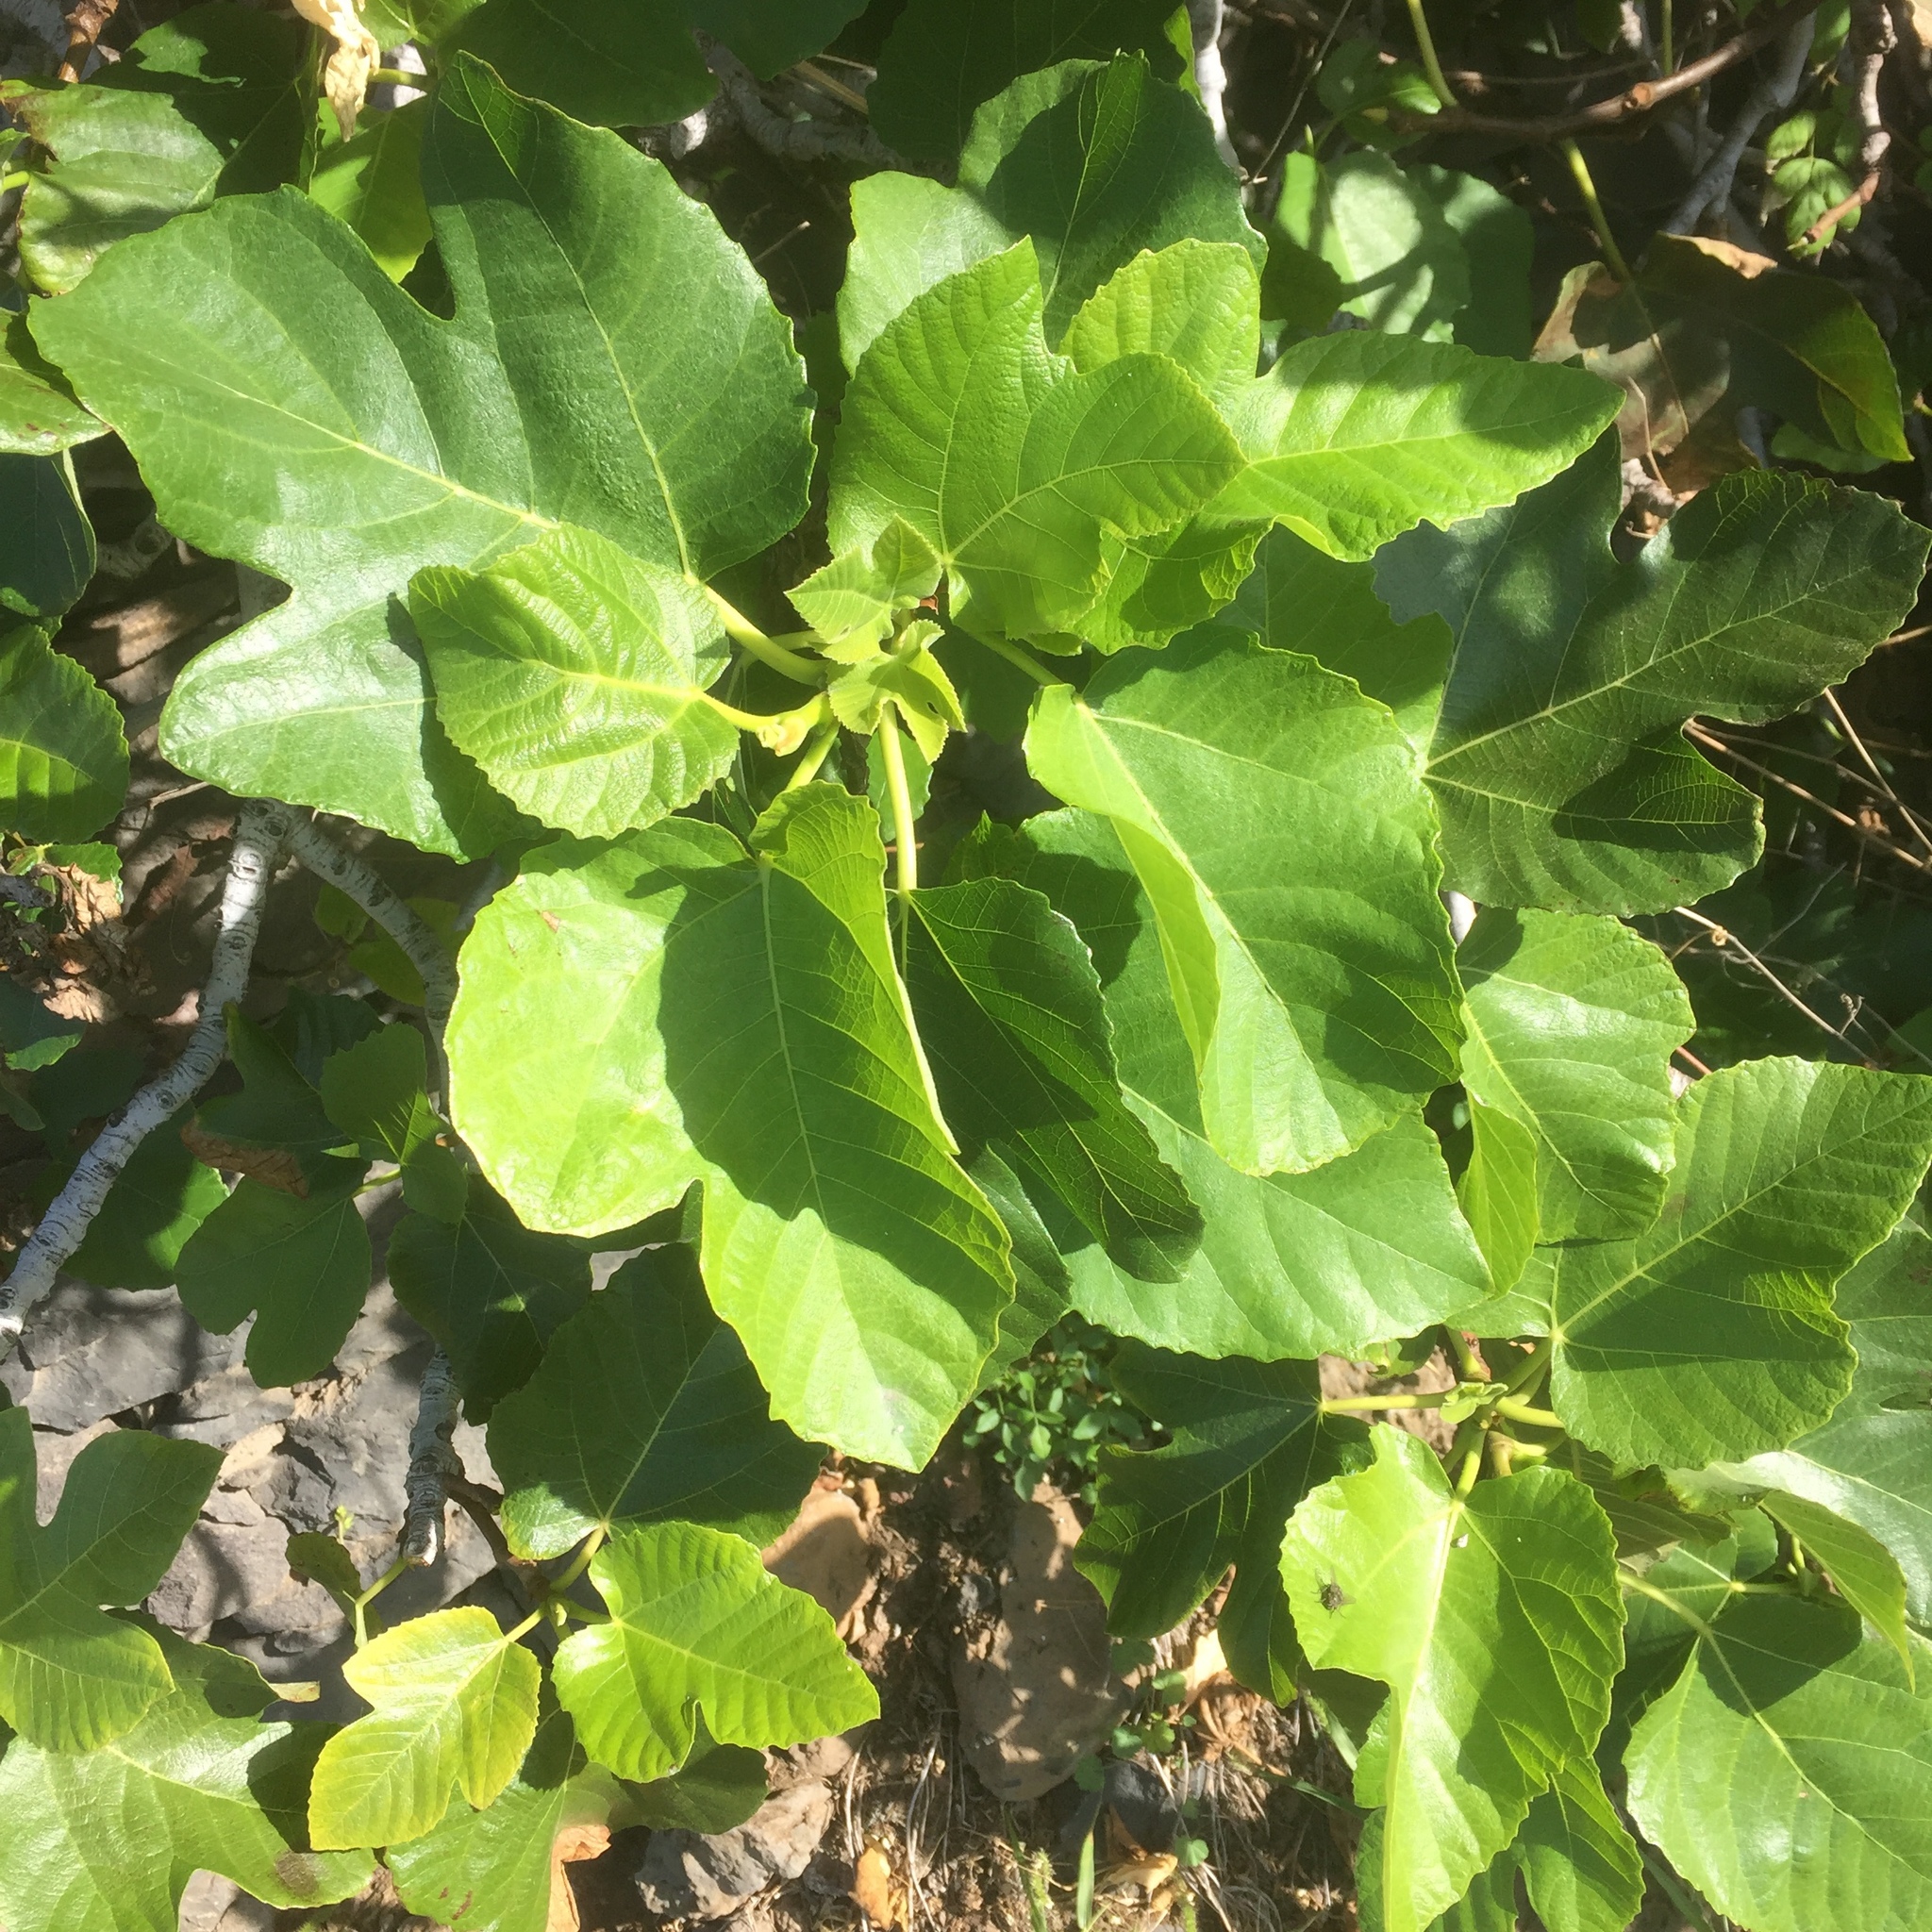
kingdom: Plantae
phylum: Tracheophyta
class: Magnoliopsida
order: Rosales
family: Moraceae
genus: Ficus
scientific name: Ficus carica
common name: Fig
